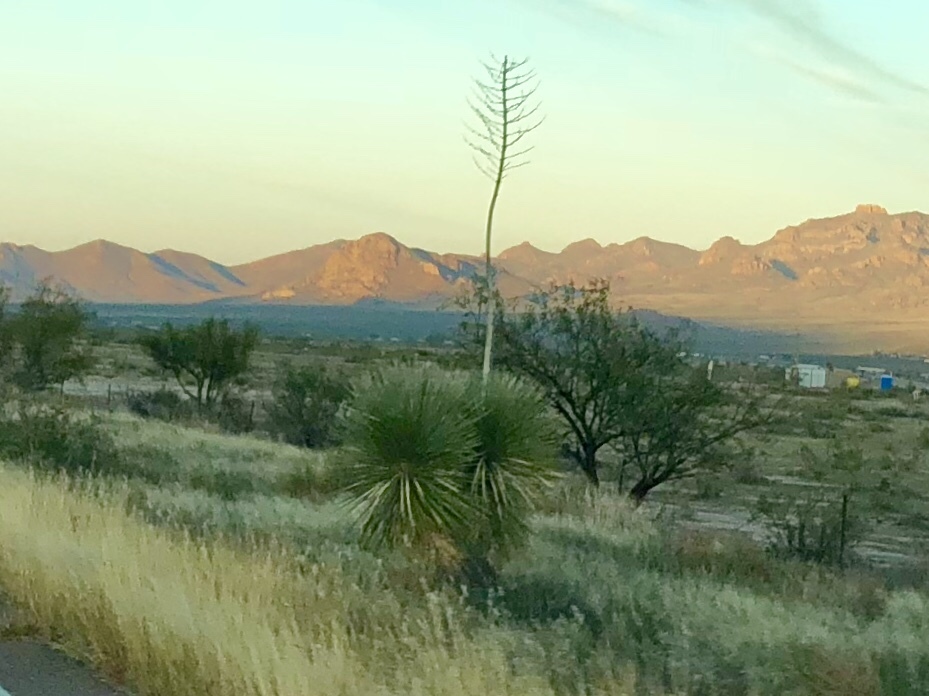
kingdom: Plantae
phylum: Tracheophyta
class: Liliopsida
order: Asparagales
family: Asparagaceae
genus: Yucca
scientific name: Yucca elata
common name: Palmella
